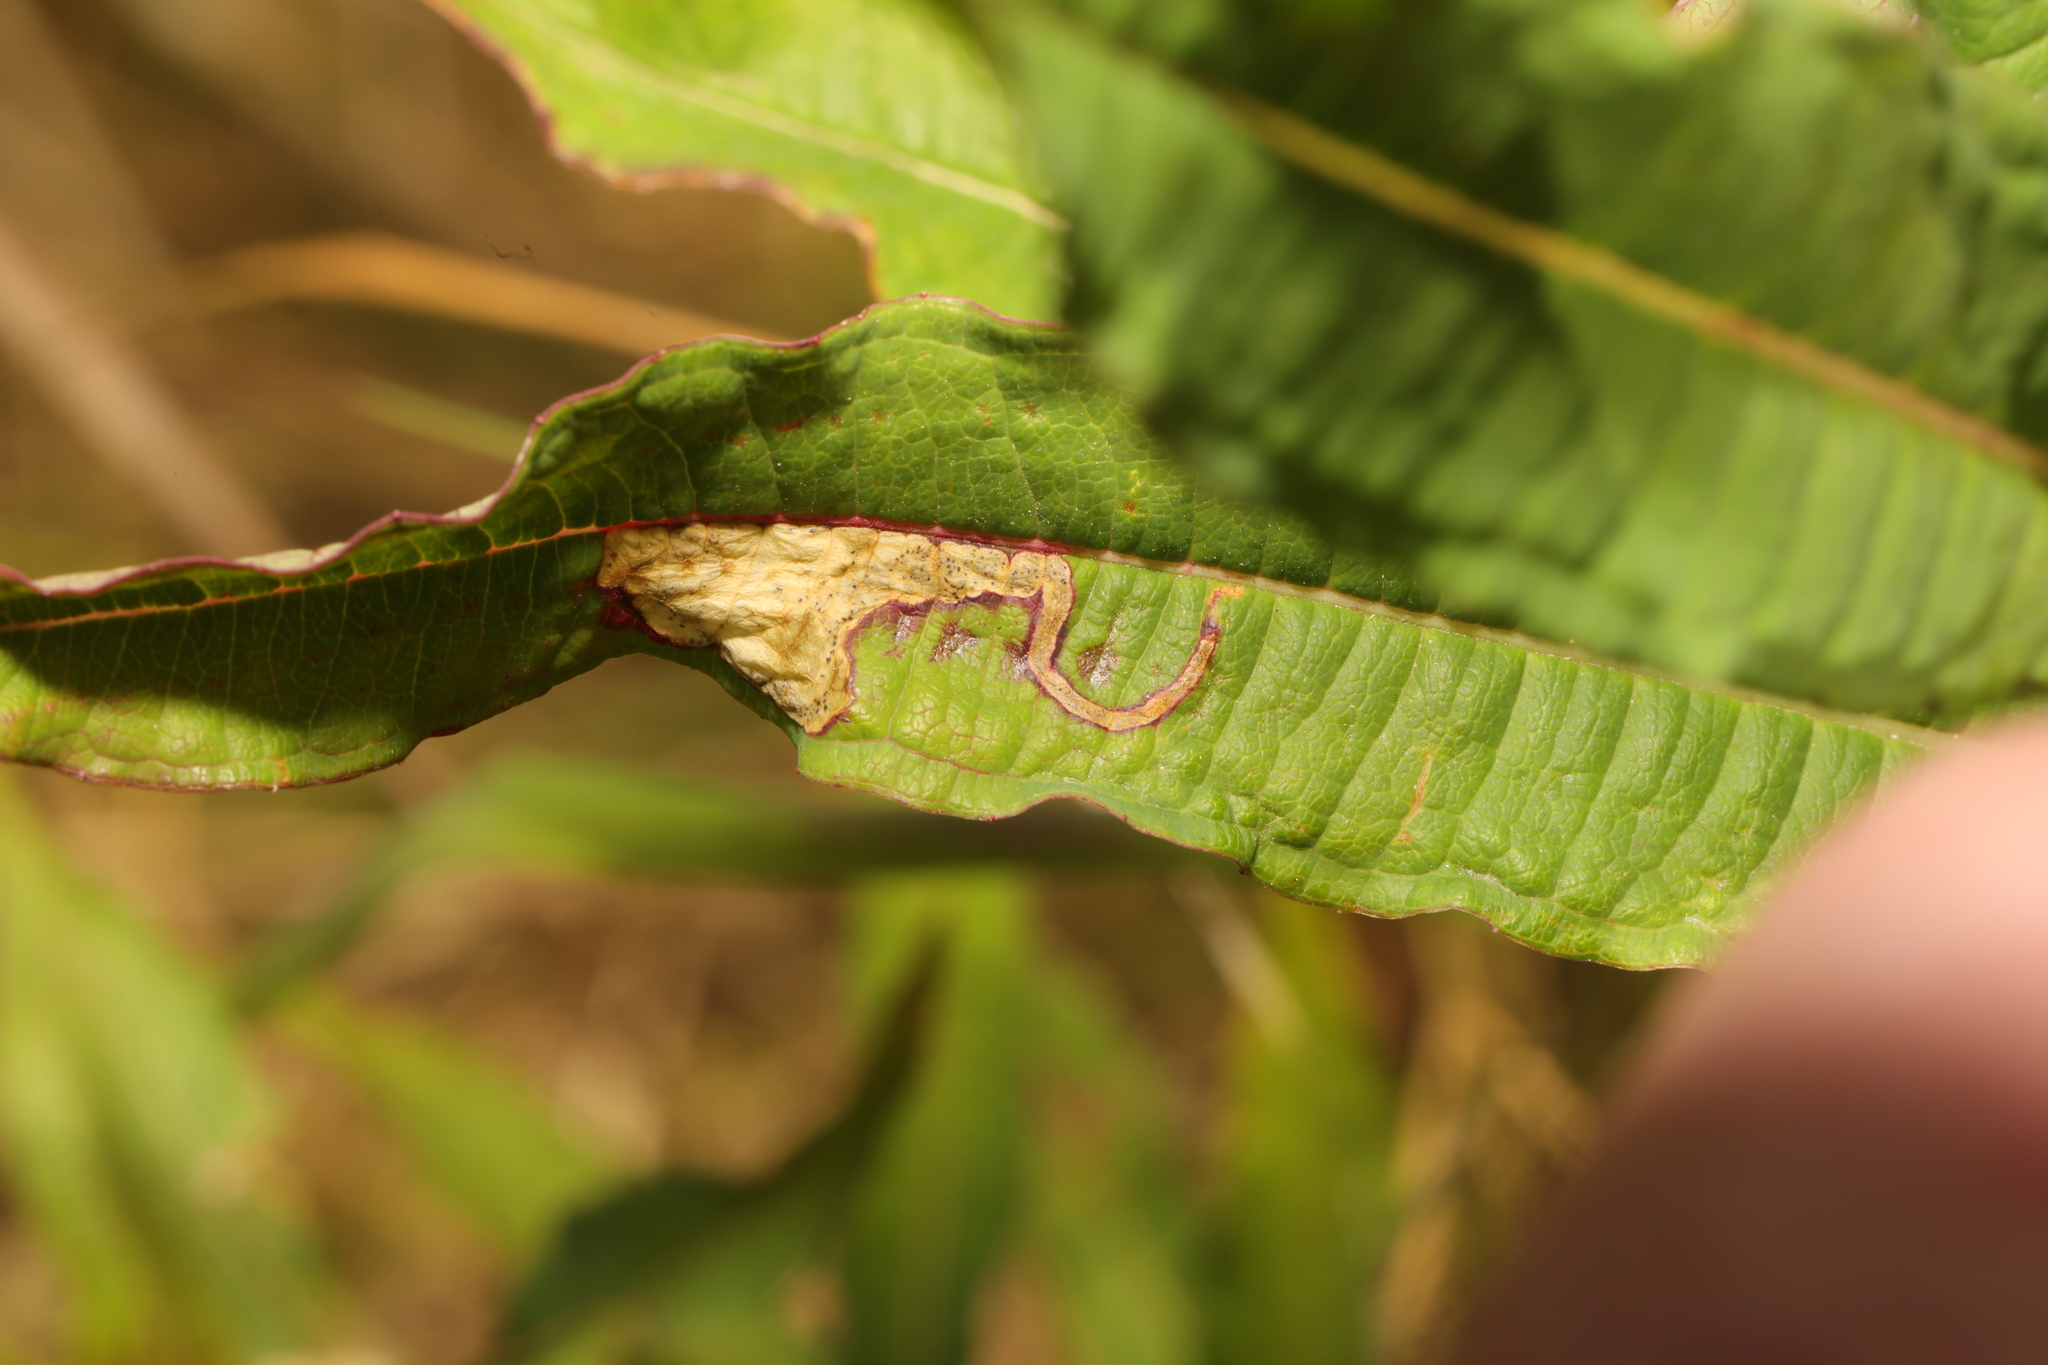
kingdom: Animalia
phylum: Arthropoda
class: Insecta
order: Lepidoptera
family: Momphidae
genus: Mompha
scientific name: Mompha raschkiella
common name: Little cosmet
